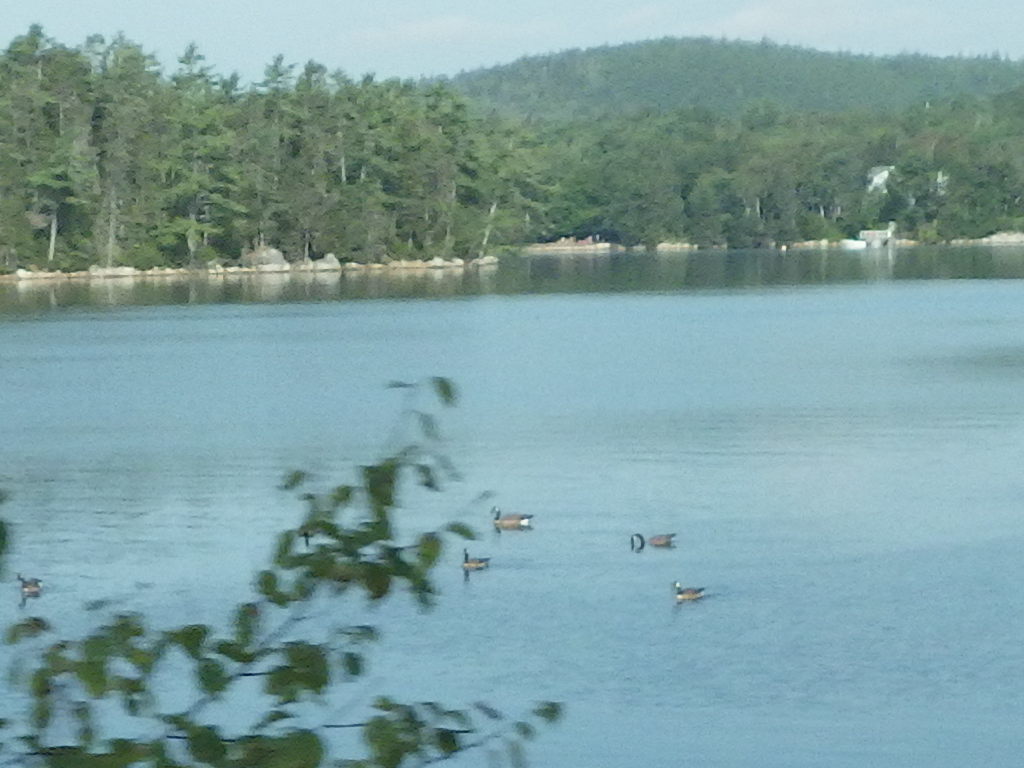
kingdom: Animalia
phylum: Chordata
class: Aves
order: Anseriformes
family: Anatidae
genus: Branta
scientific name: Branta canadensis
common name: Canada goose
